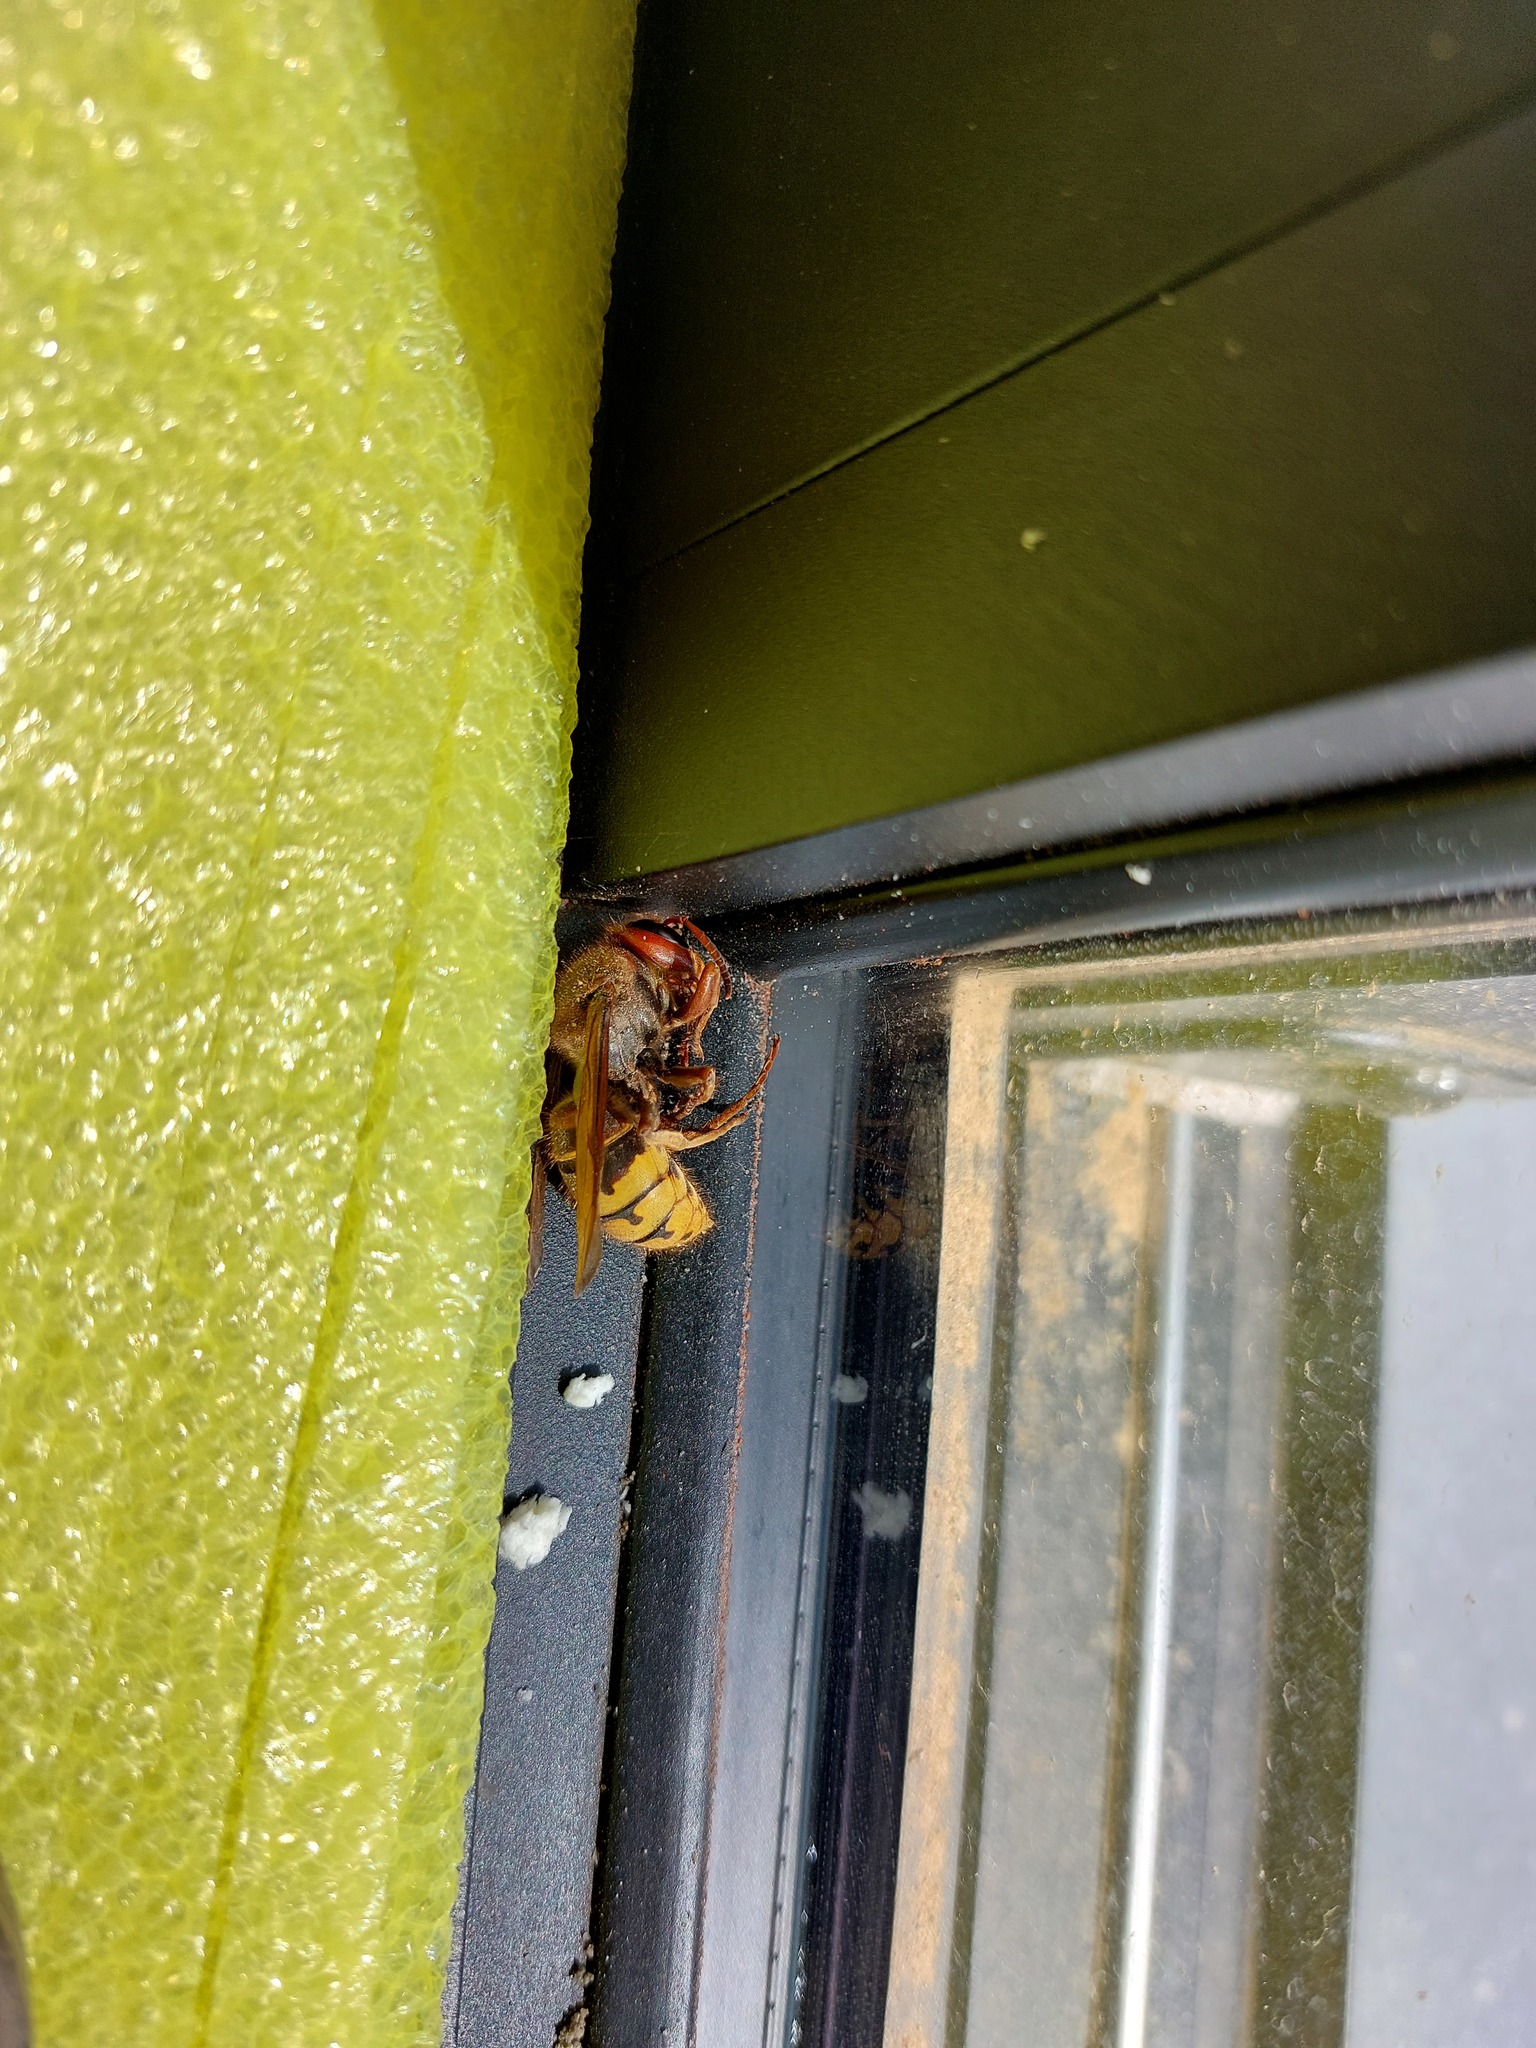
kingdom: Animalia
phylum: Arthropoda
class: Insecta
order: Hymenoptera
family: Vespidae
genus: Vespa
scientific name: Vespa crabro
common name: Hornet
